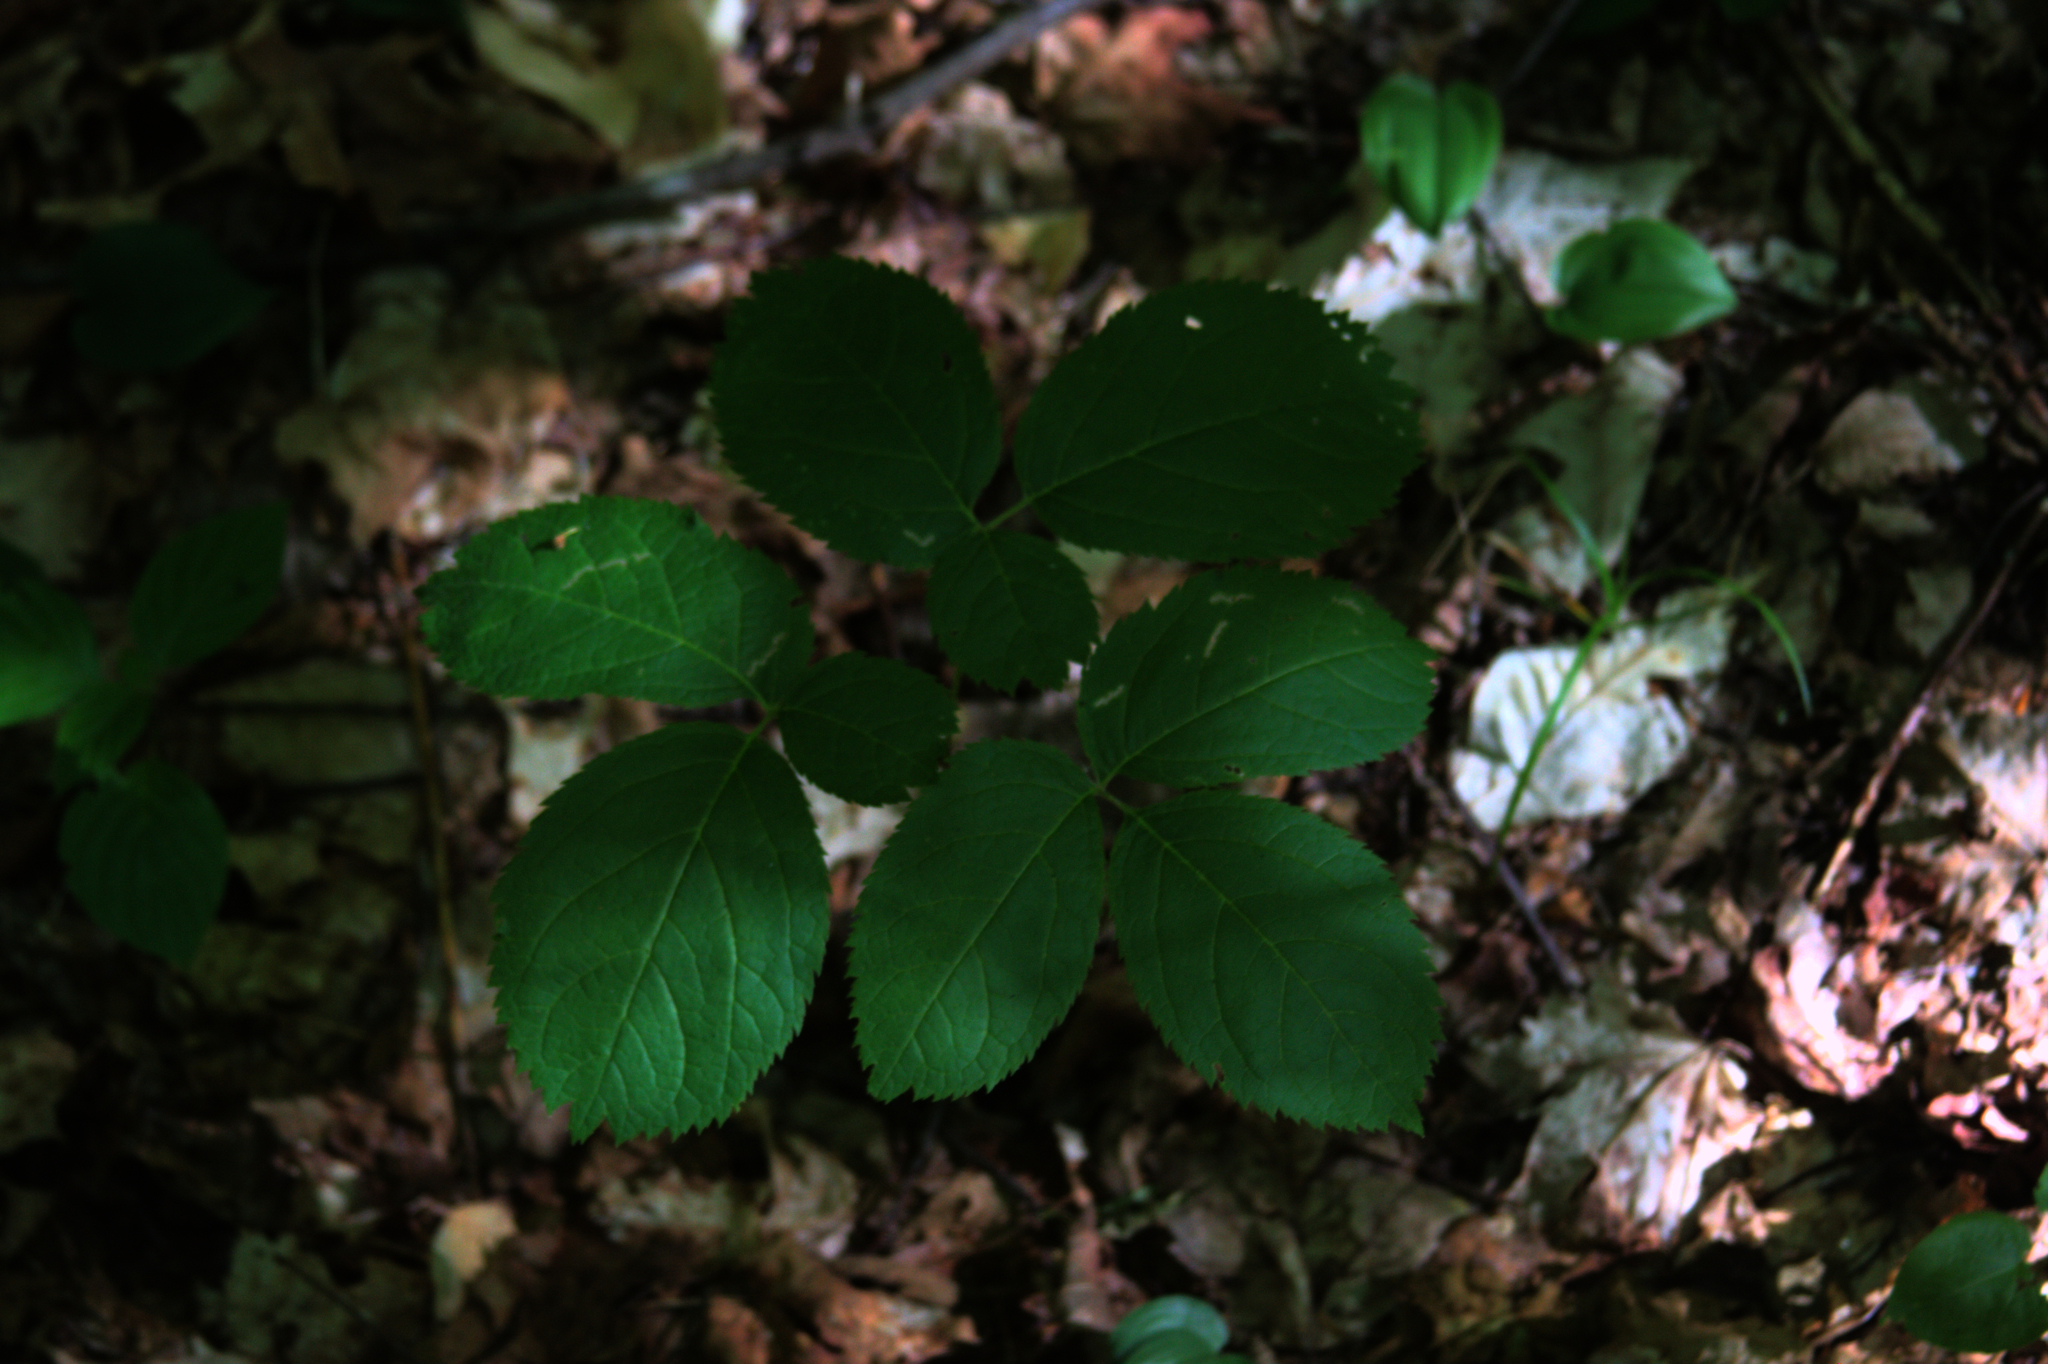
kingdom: Plantae
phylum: Tracheophyta
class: Magnoliopsida
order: Apiales
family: Araliaceae
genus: Aralia
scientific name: Aralia nudicaulis
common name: Wild sarsaparilla
